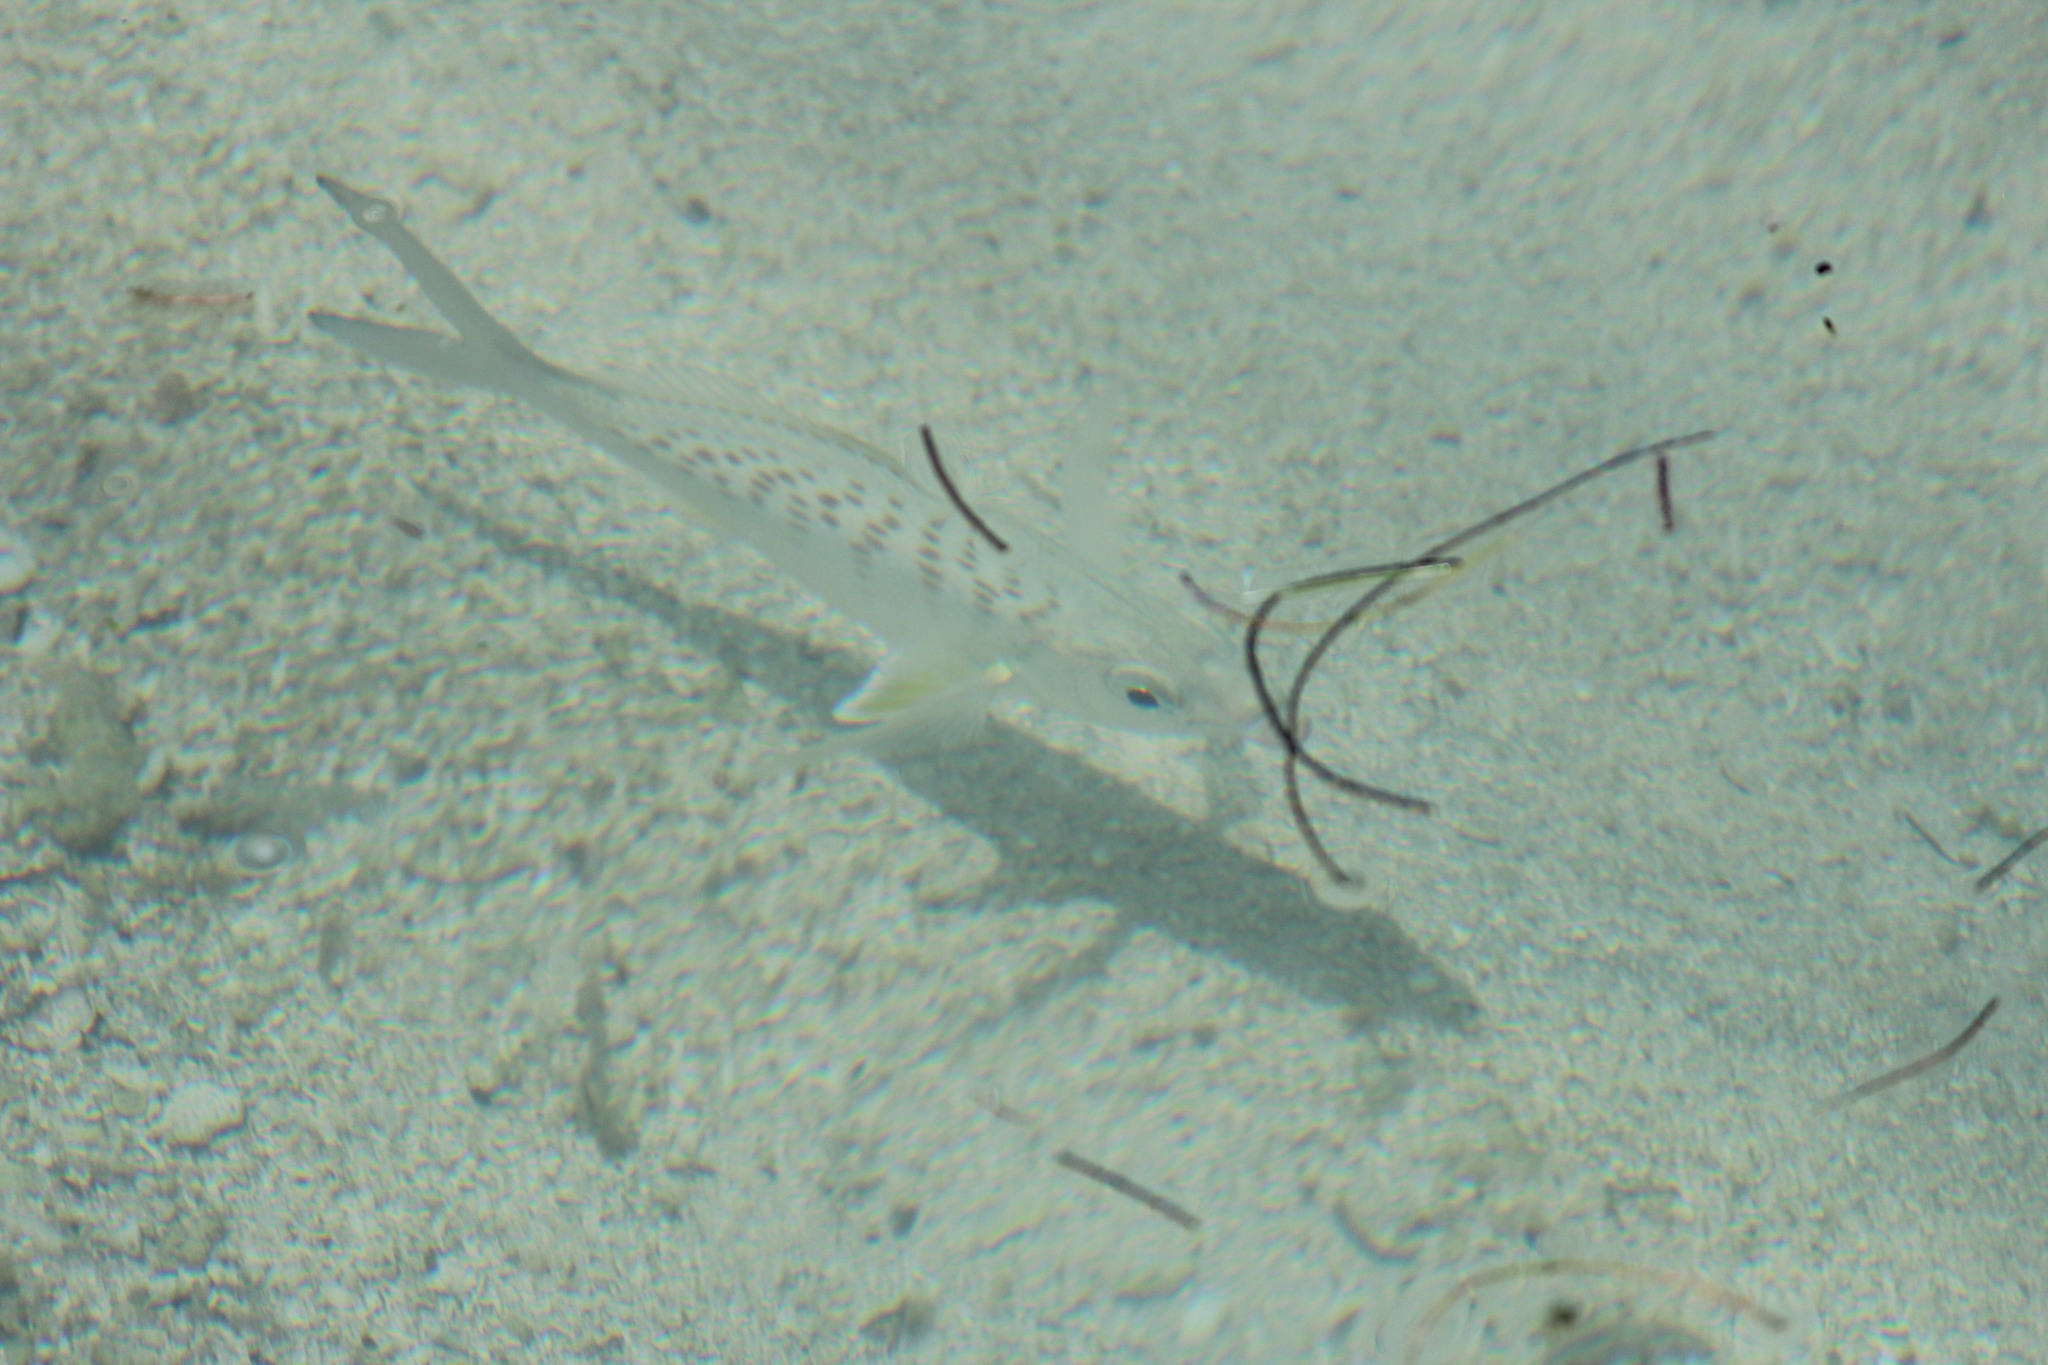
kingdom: Animalia
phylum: Chordata
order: Perciformes
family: Gerreidae
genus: Gerres
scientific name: Gerres cinereus
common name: Hedow
